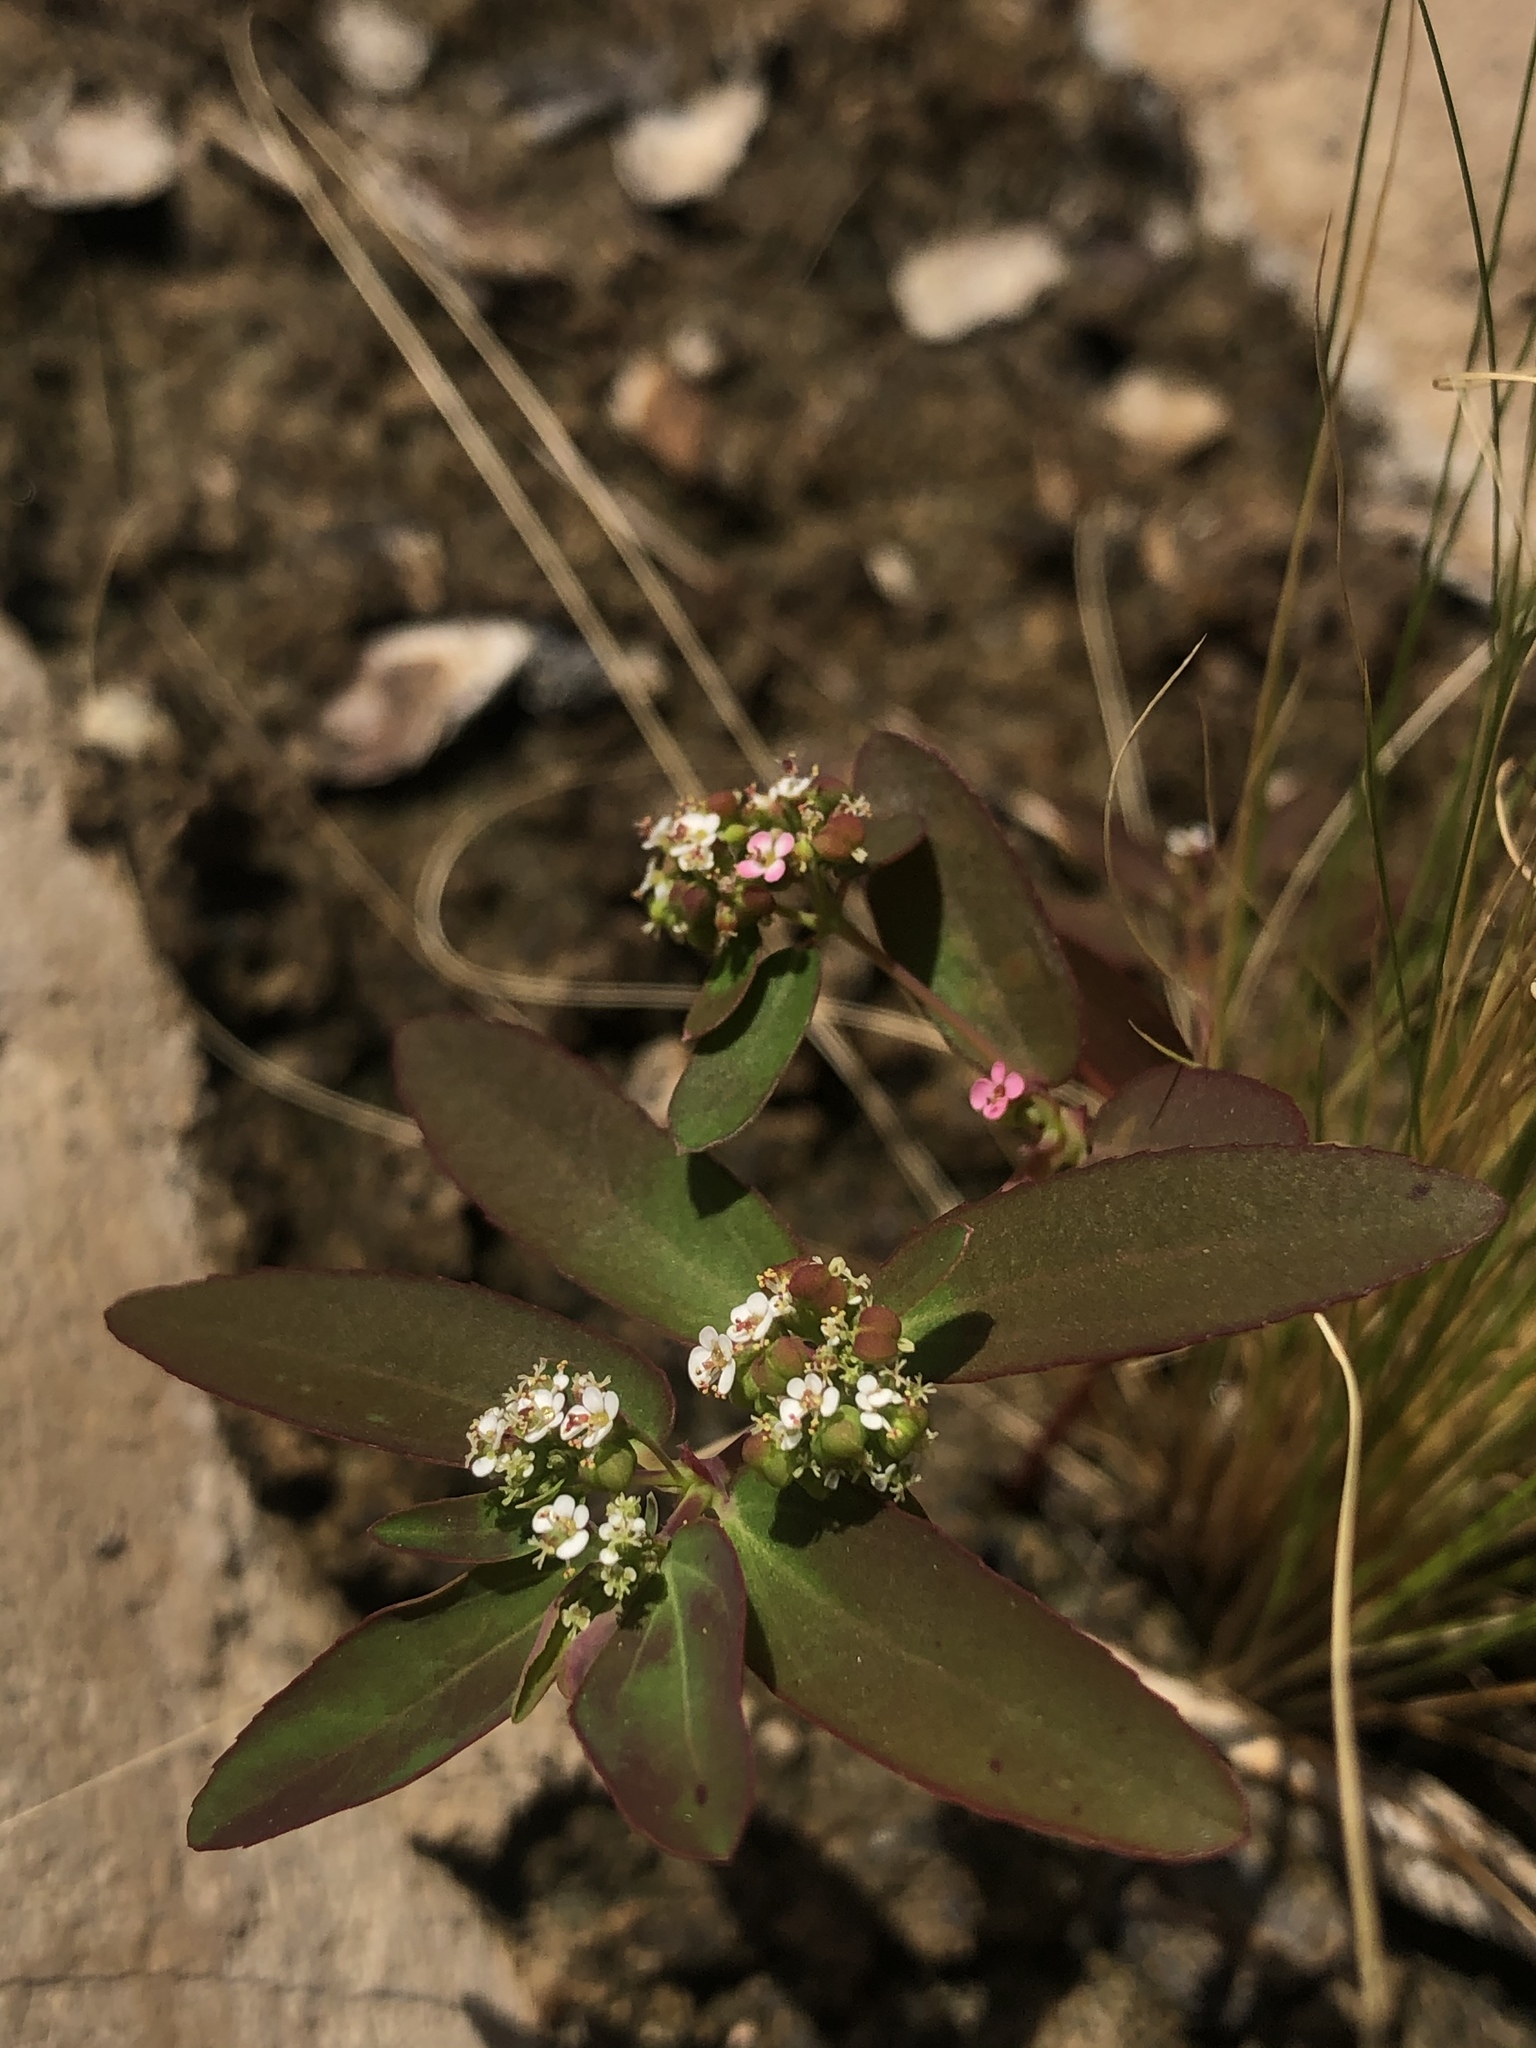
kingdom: Plantae
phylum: Tracheophyta
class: Magnoliopsida
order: Malpighiales
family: Euphorbiaceae
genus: Euphorbia
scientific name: Euphorbia hypericifolia
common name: Graceful sandmat
